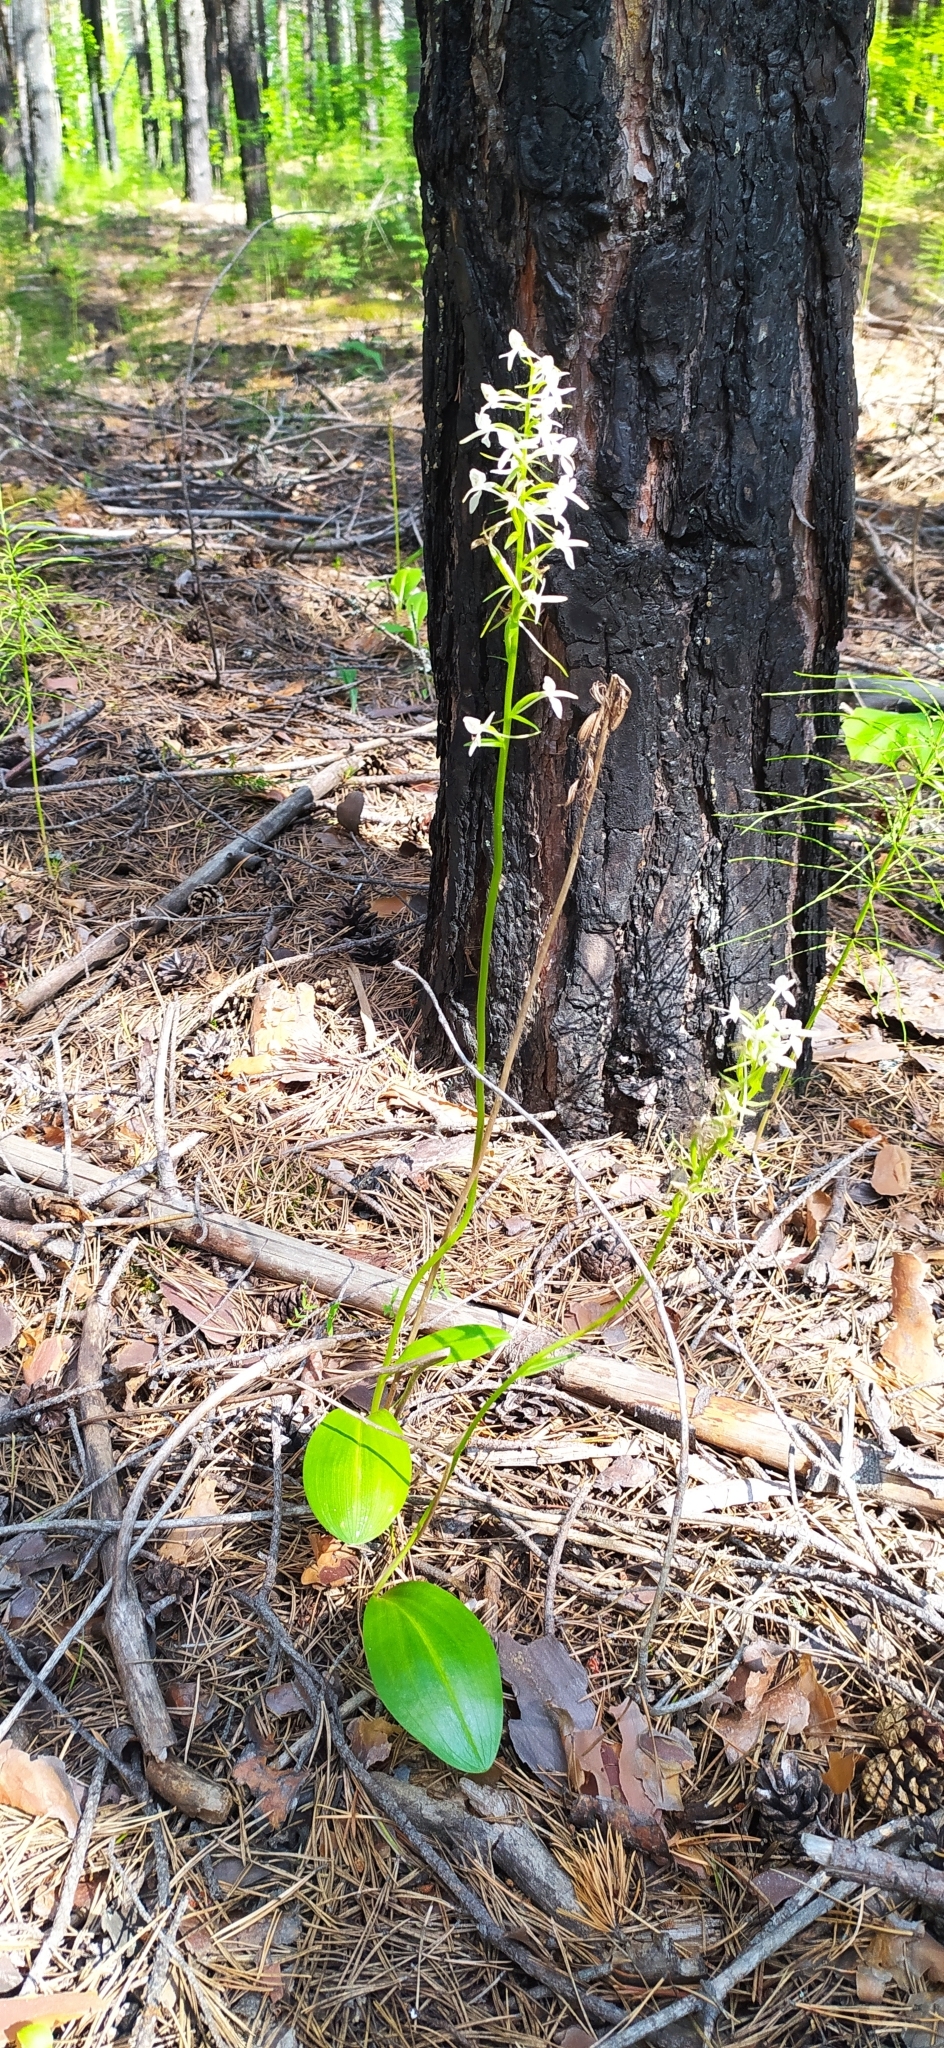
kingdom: Plantae
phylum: Tracheophyta
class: Liliopsida
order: Asparagales
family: Orchidaceae
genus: Platanthera
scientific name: Platanthera bifolia
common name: Lesser butterfly-orchid
